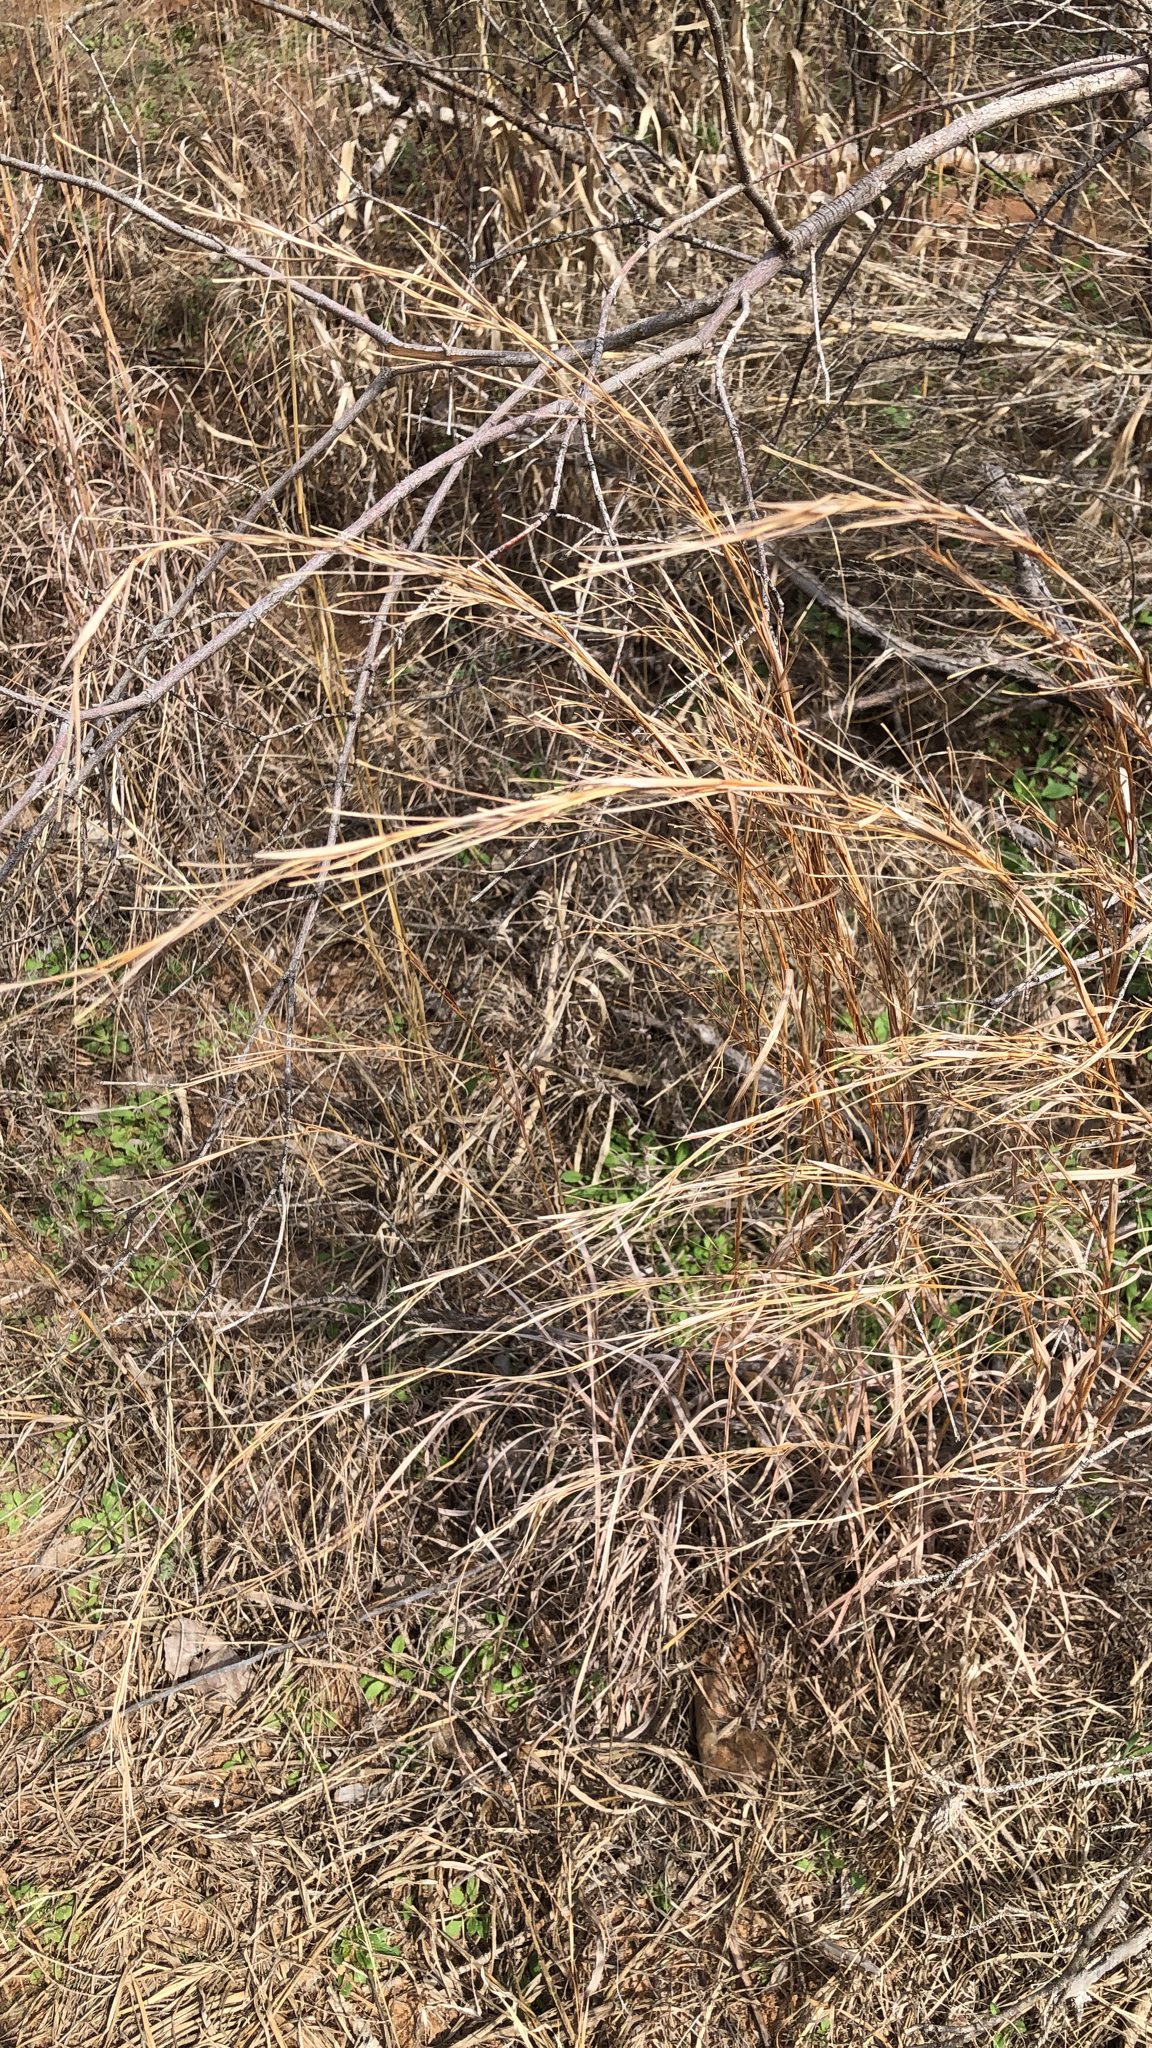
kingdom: Plantae
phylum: Tracheophyta
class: Liliopsida
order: Poales
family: Poaceae
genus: Schizachyrium
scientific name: Schizachyrium scoparium
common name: Little bluestem
